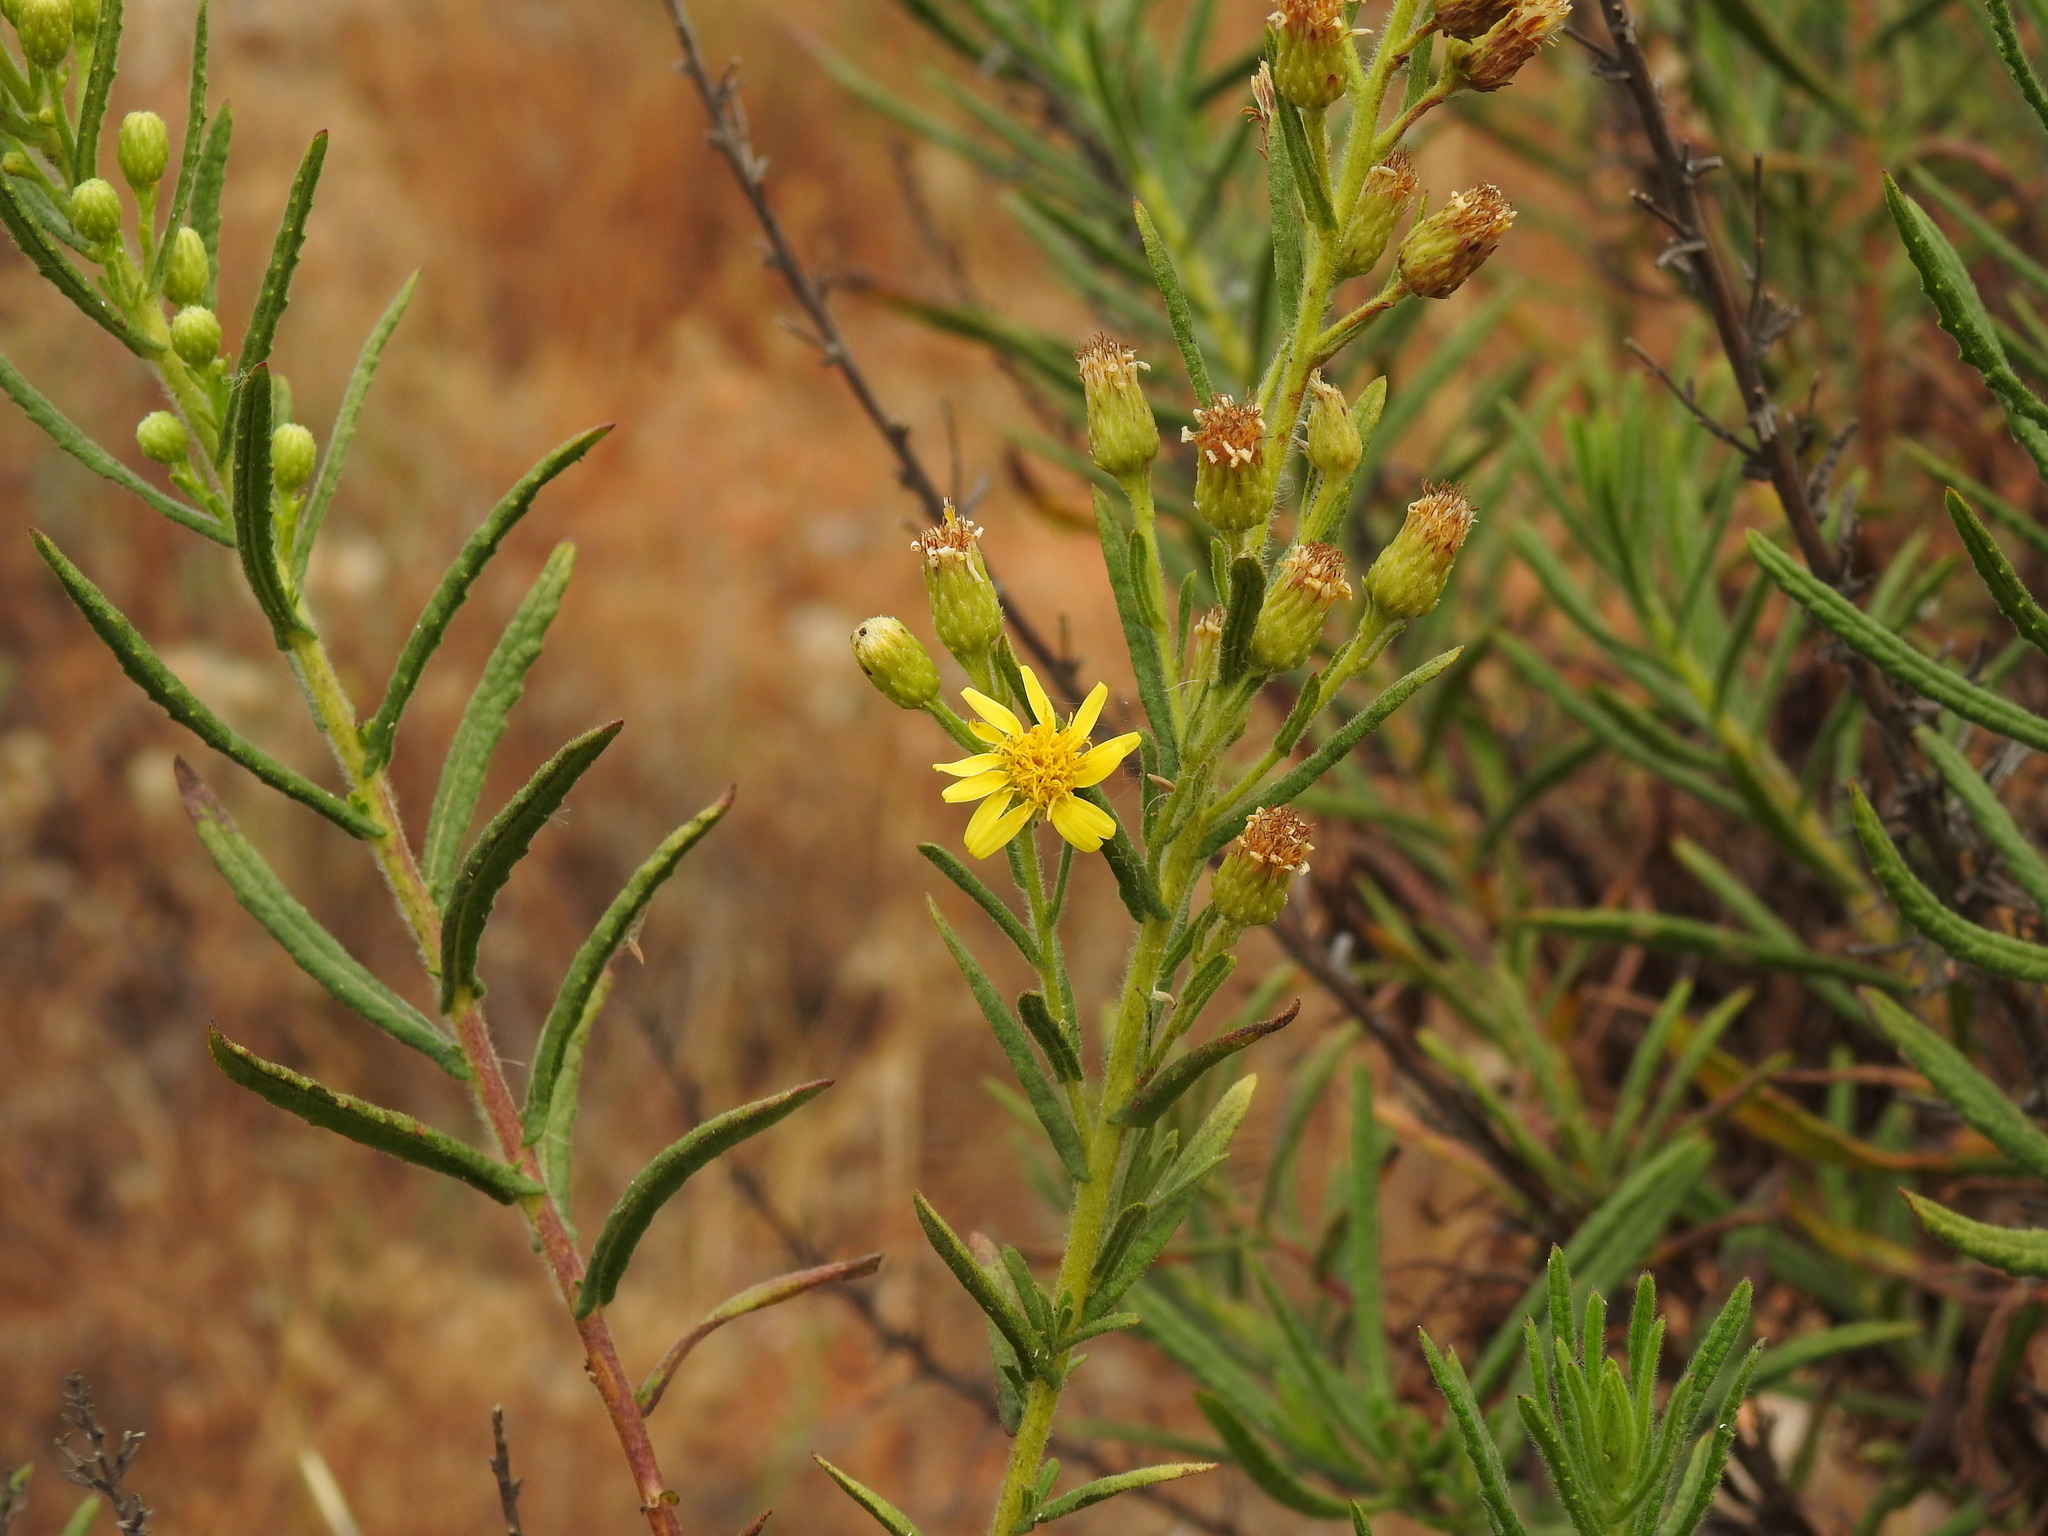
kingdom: Plantae
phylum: Tracheophyta
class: Magnoliopsida
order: Asterales
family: Asteraceae
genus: Dittrichia
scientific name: Dittrichia viscosa
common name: Woody fleabane
